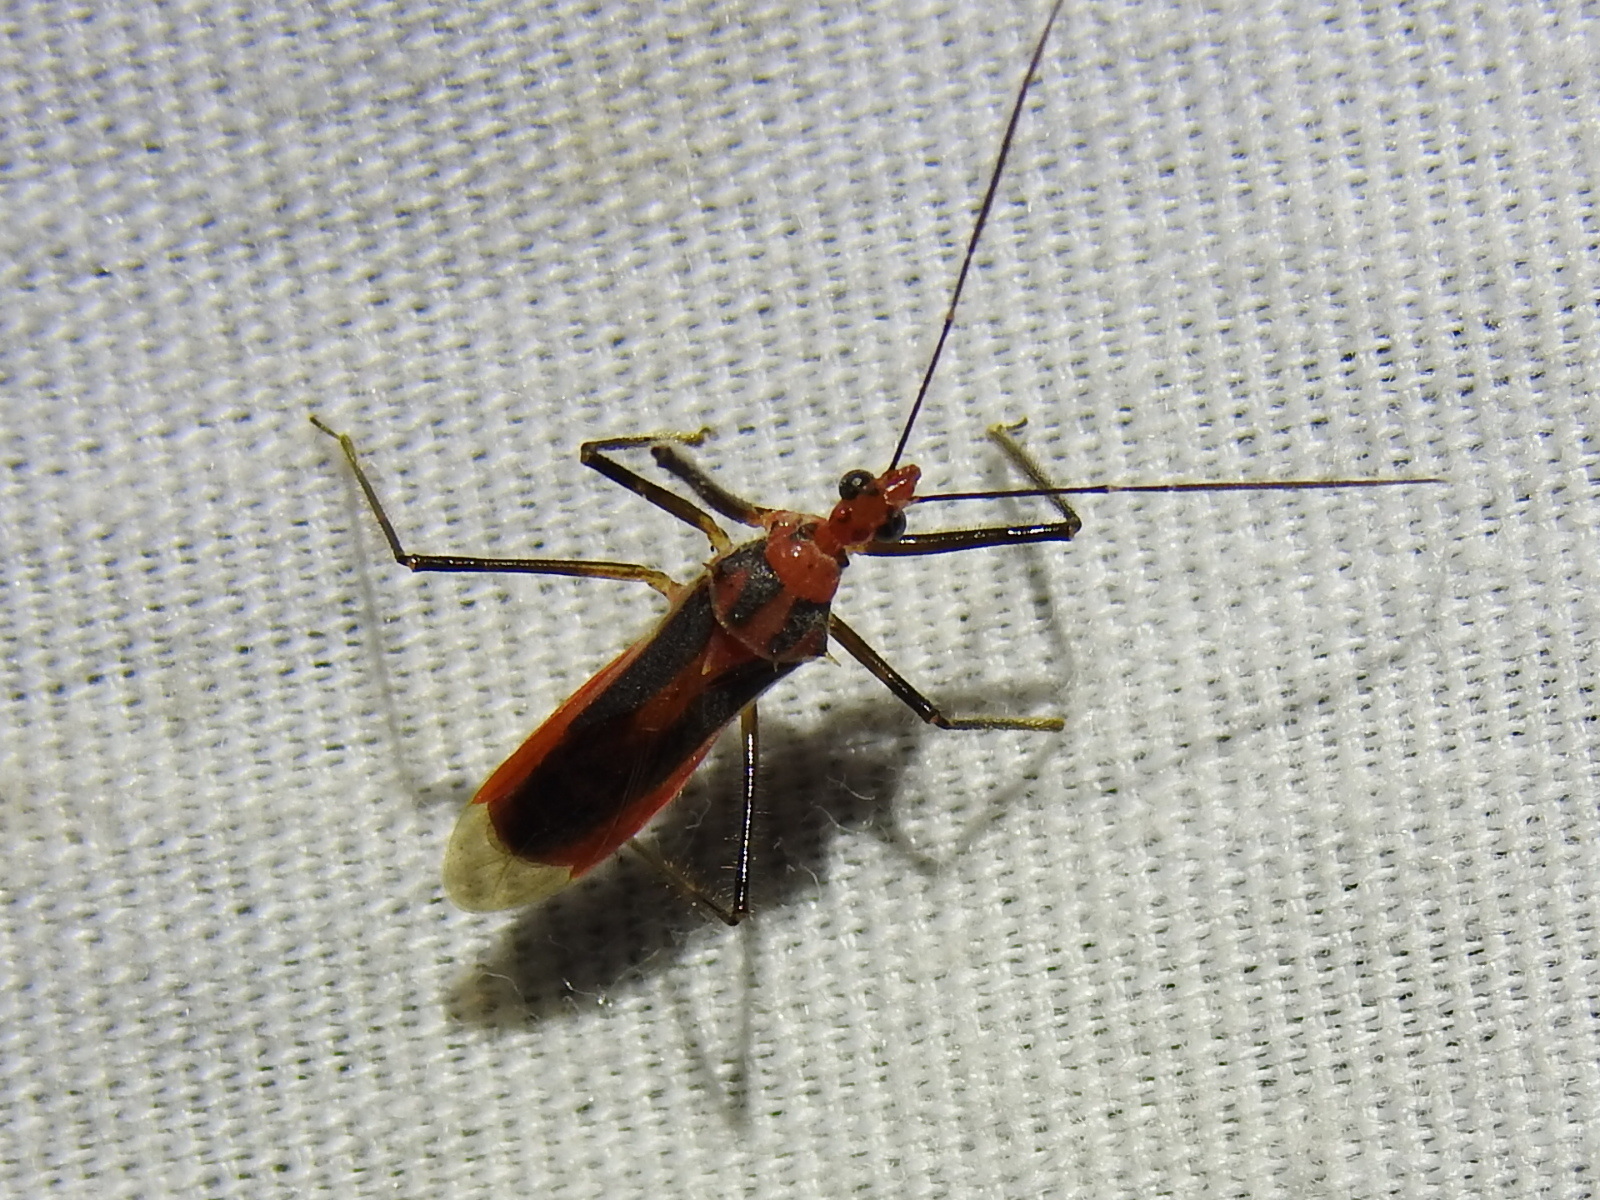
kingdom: Animalia
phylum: Arthropoda
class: Insecta
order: Hemiptera
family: Reduviidae
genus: Repipta
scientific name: Repipta taurus
